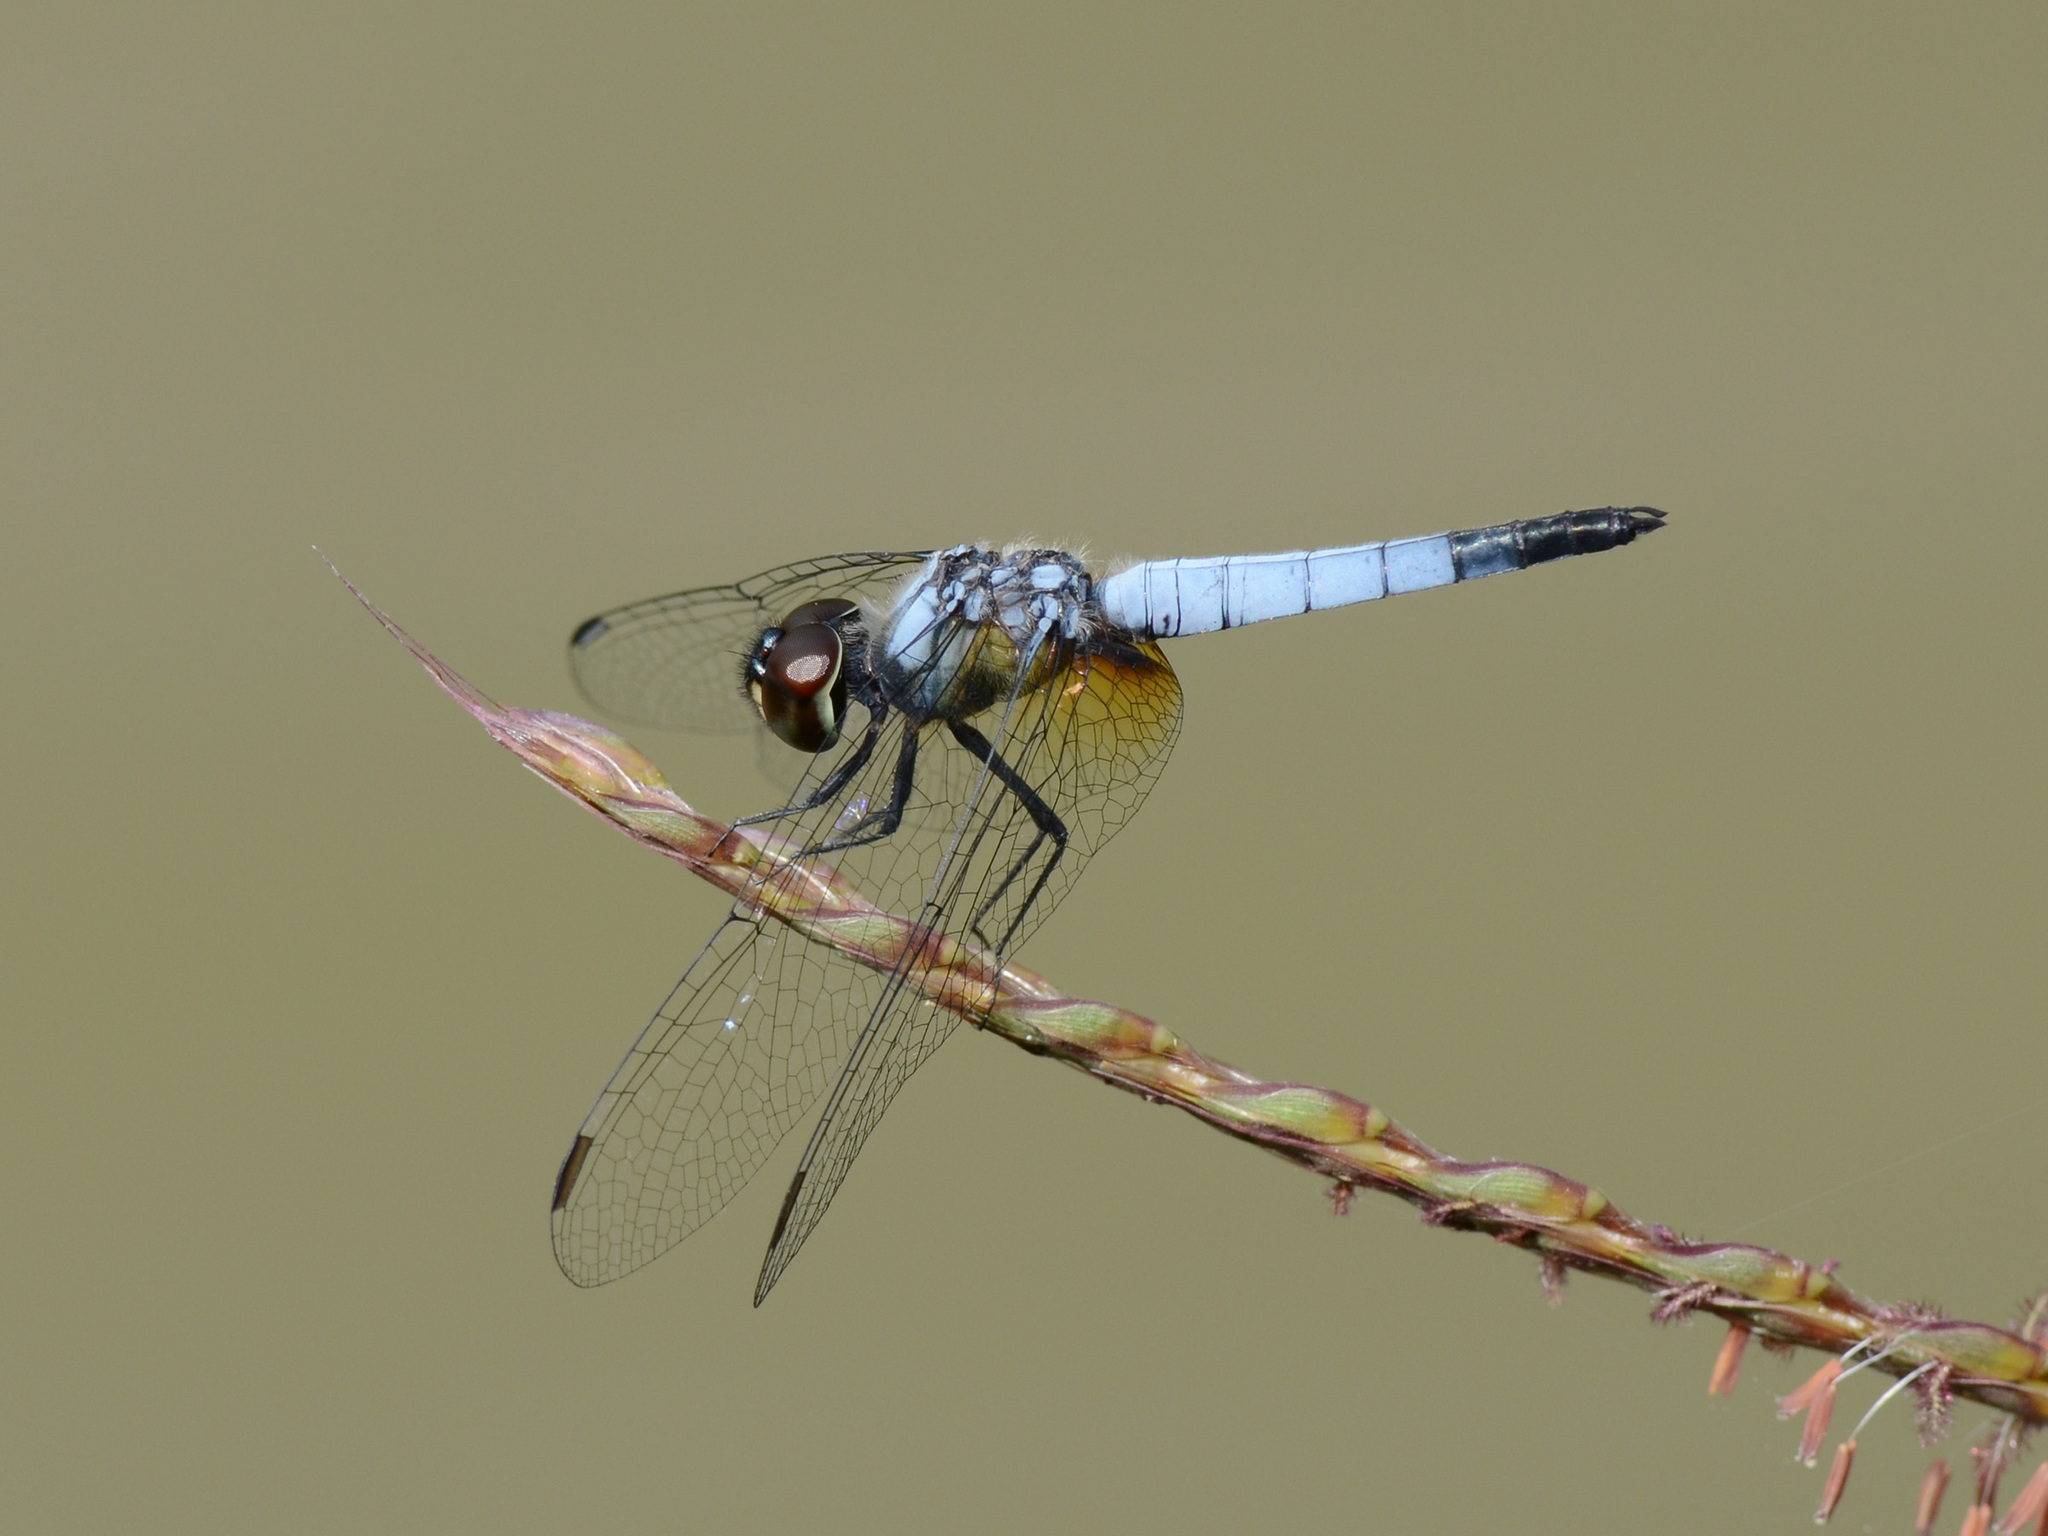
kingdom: Animalia
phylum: Arthropoda
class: Insecta
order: Odonata
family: Libellulidae
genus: Aethriamanta
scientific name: Aethriamanta gracilis
